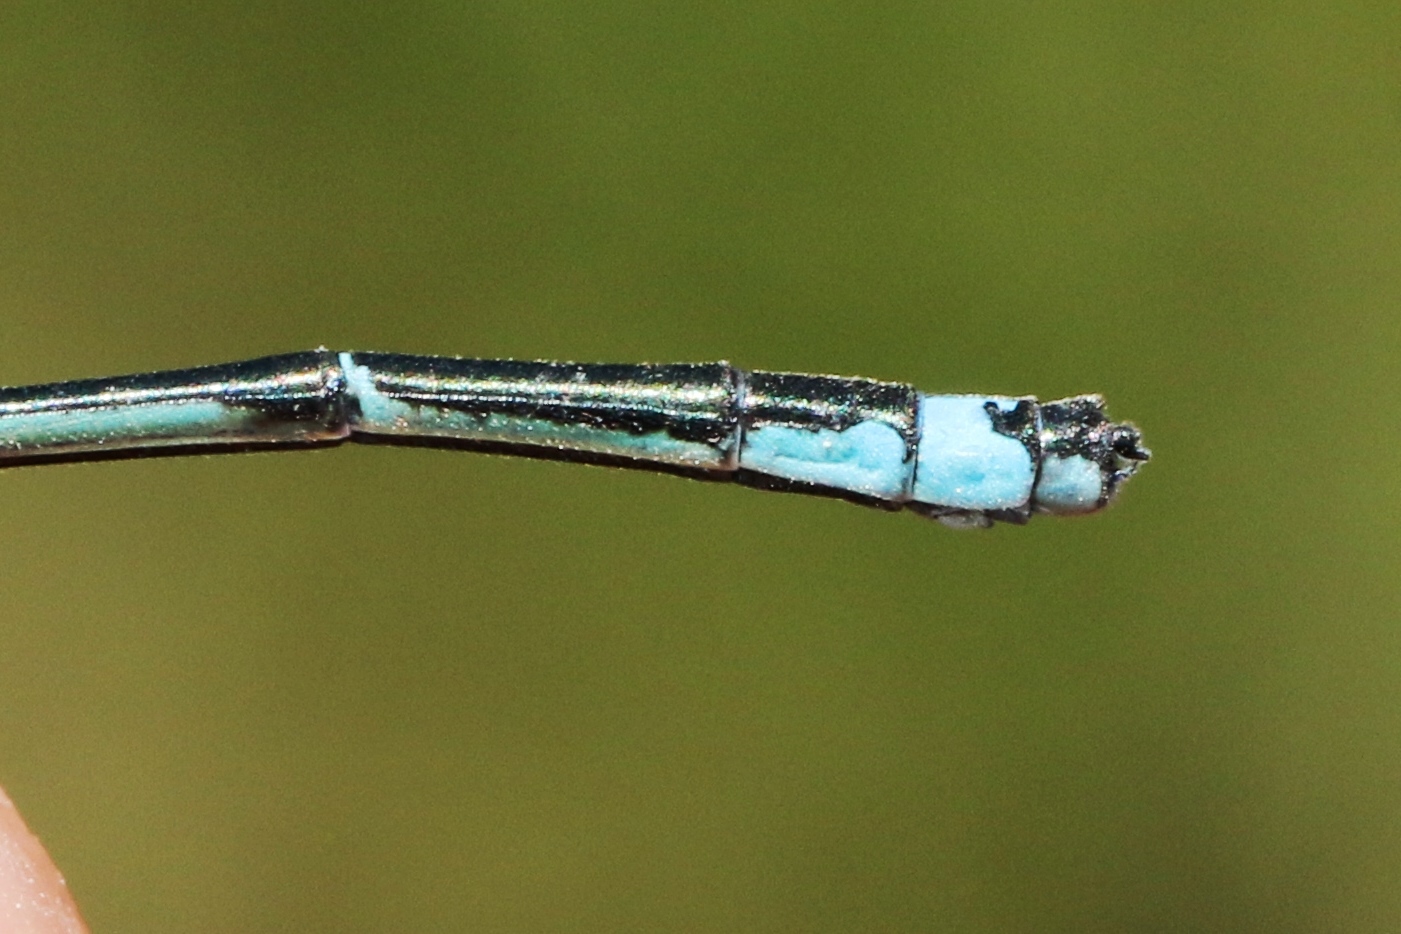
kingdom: Animalia
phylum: Arthropoda
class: Insecta
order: Odonata
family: Coenagrionidae
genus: Enallagma
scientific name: Enallagma exsulans
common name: Stream bluet
